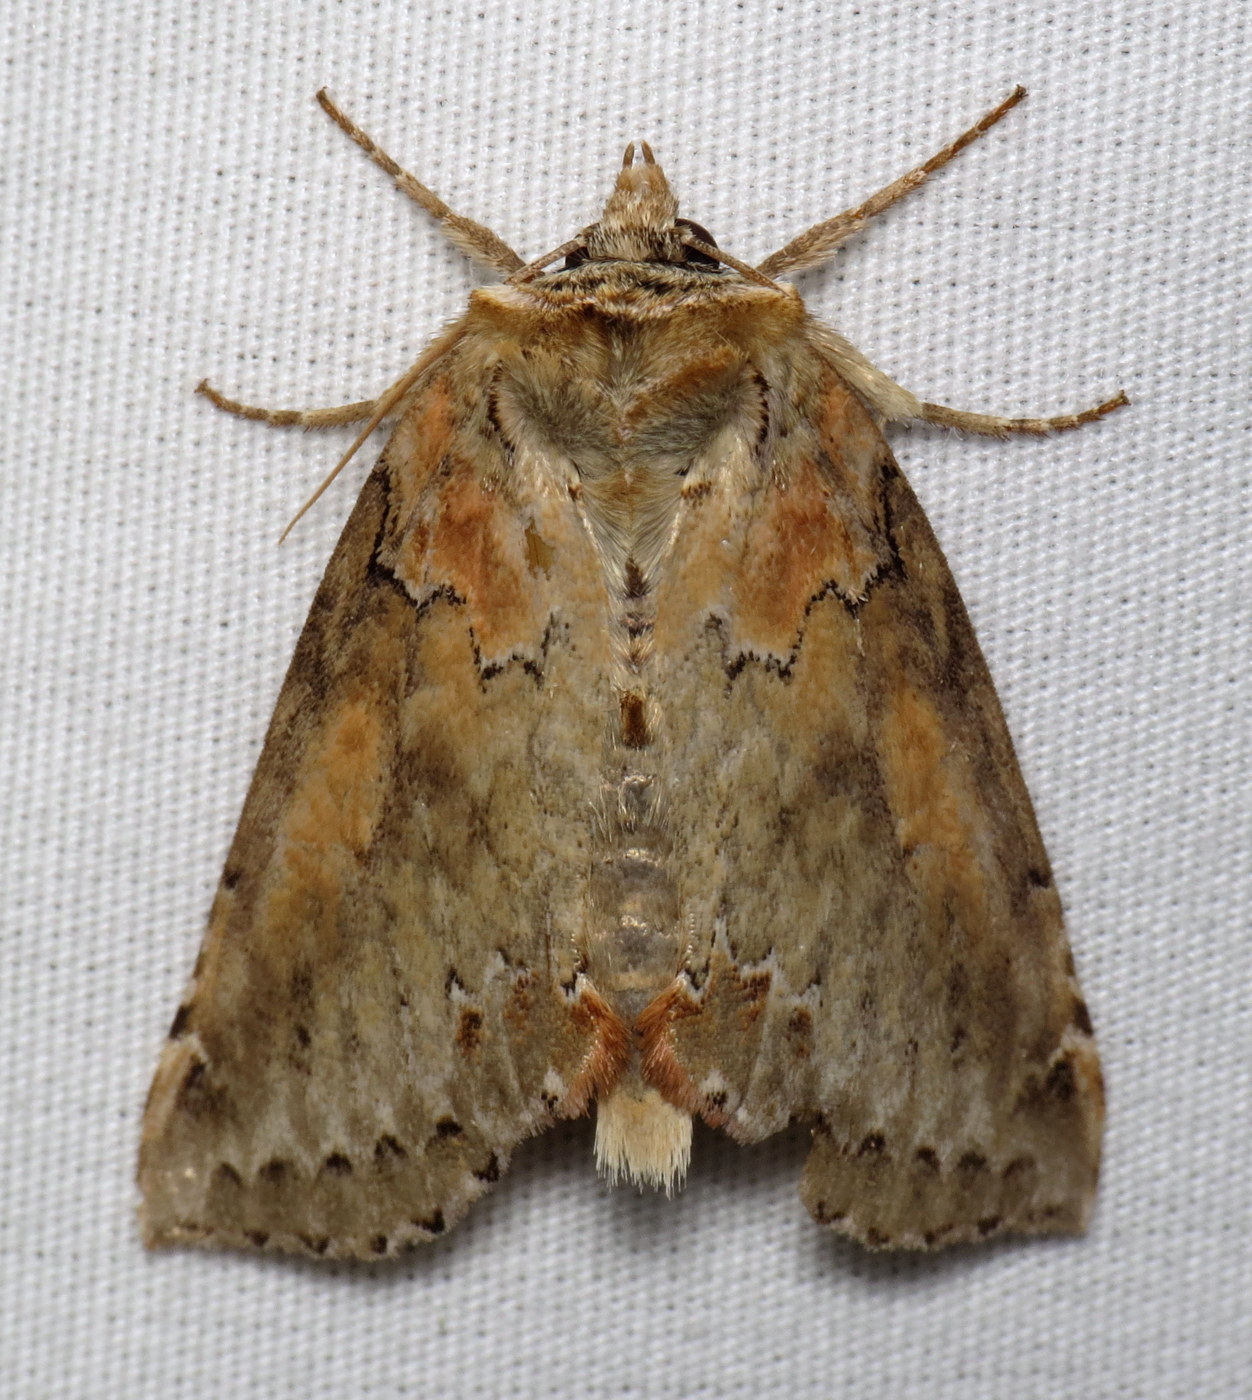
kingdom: Animalia
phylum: Arthropoda
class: Insecta
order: Lepidoptera
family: Drepanidae
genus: Pseudothyatira
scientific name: Pseudothyatira cymatophoroides
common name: Tufted thyatirid moth
